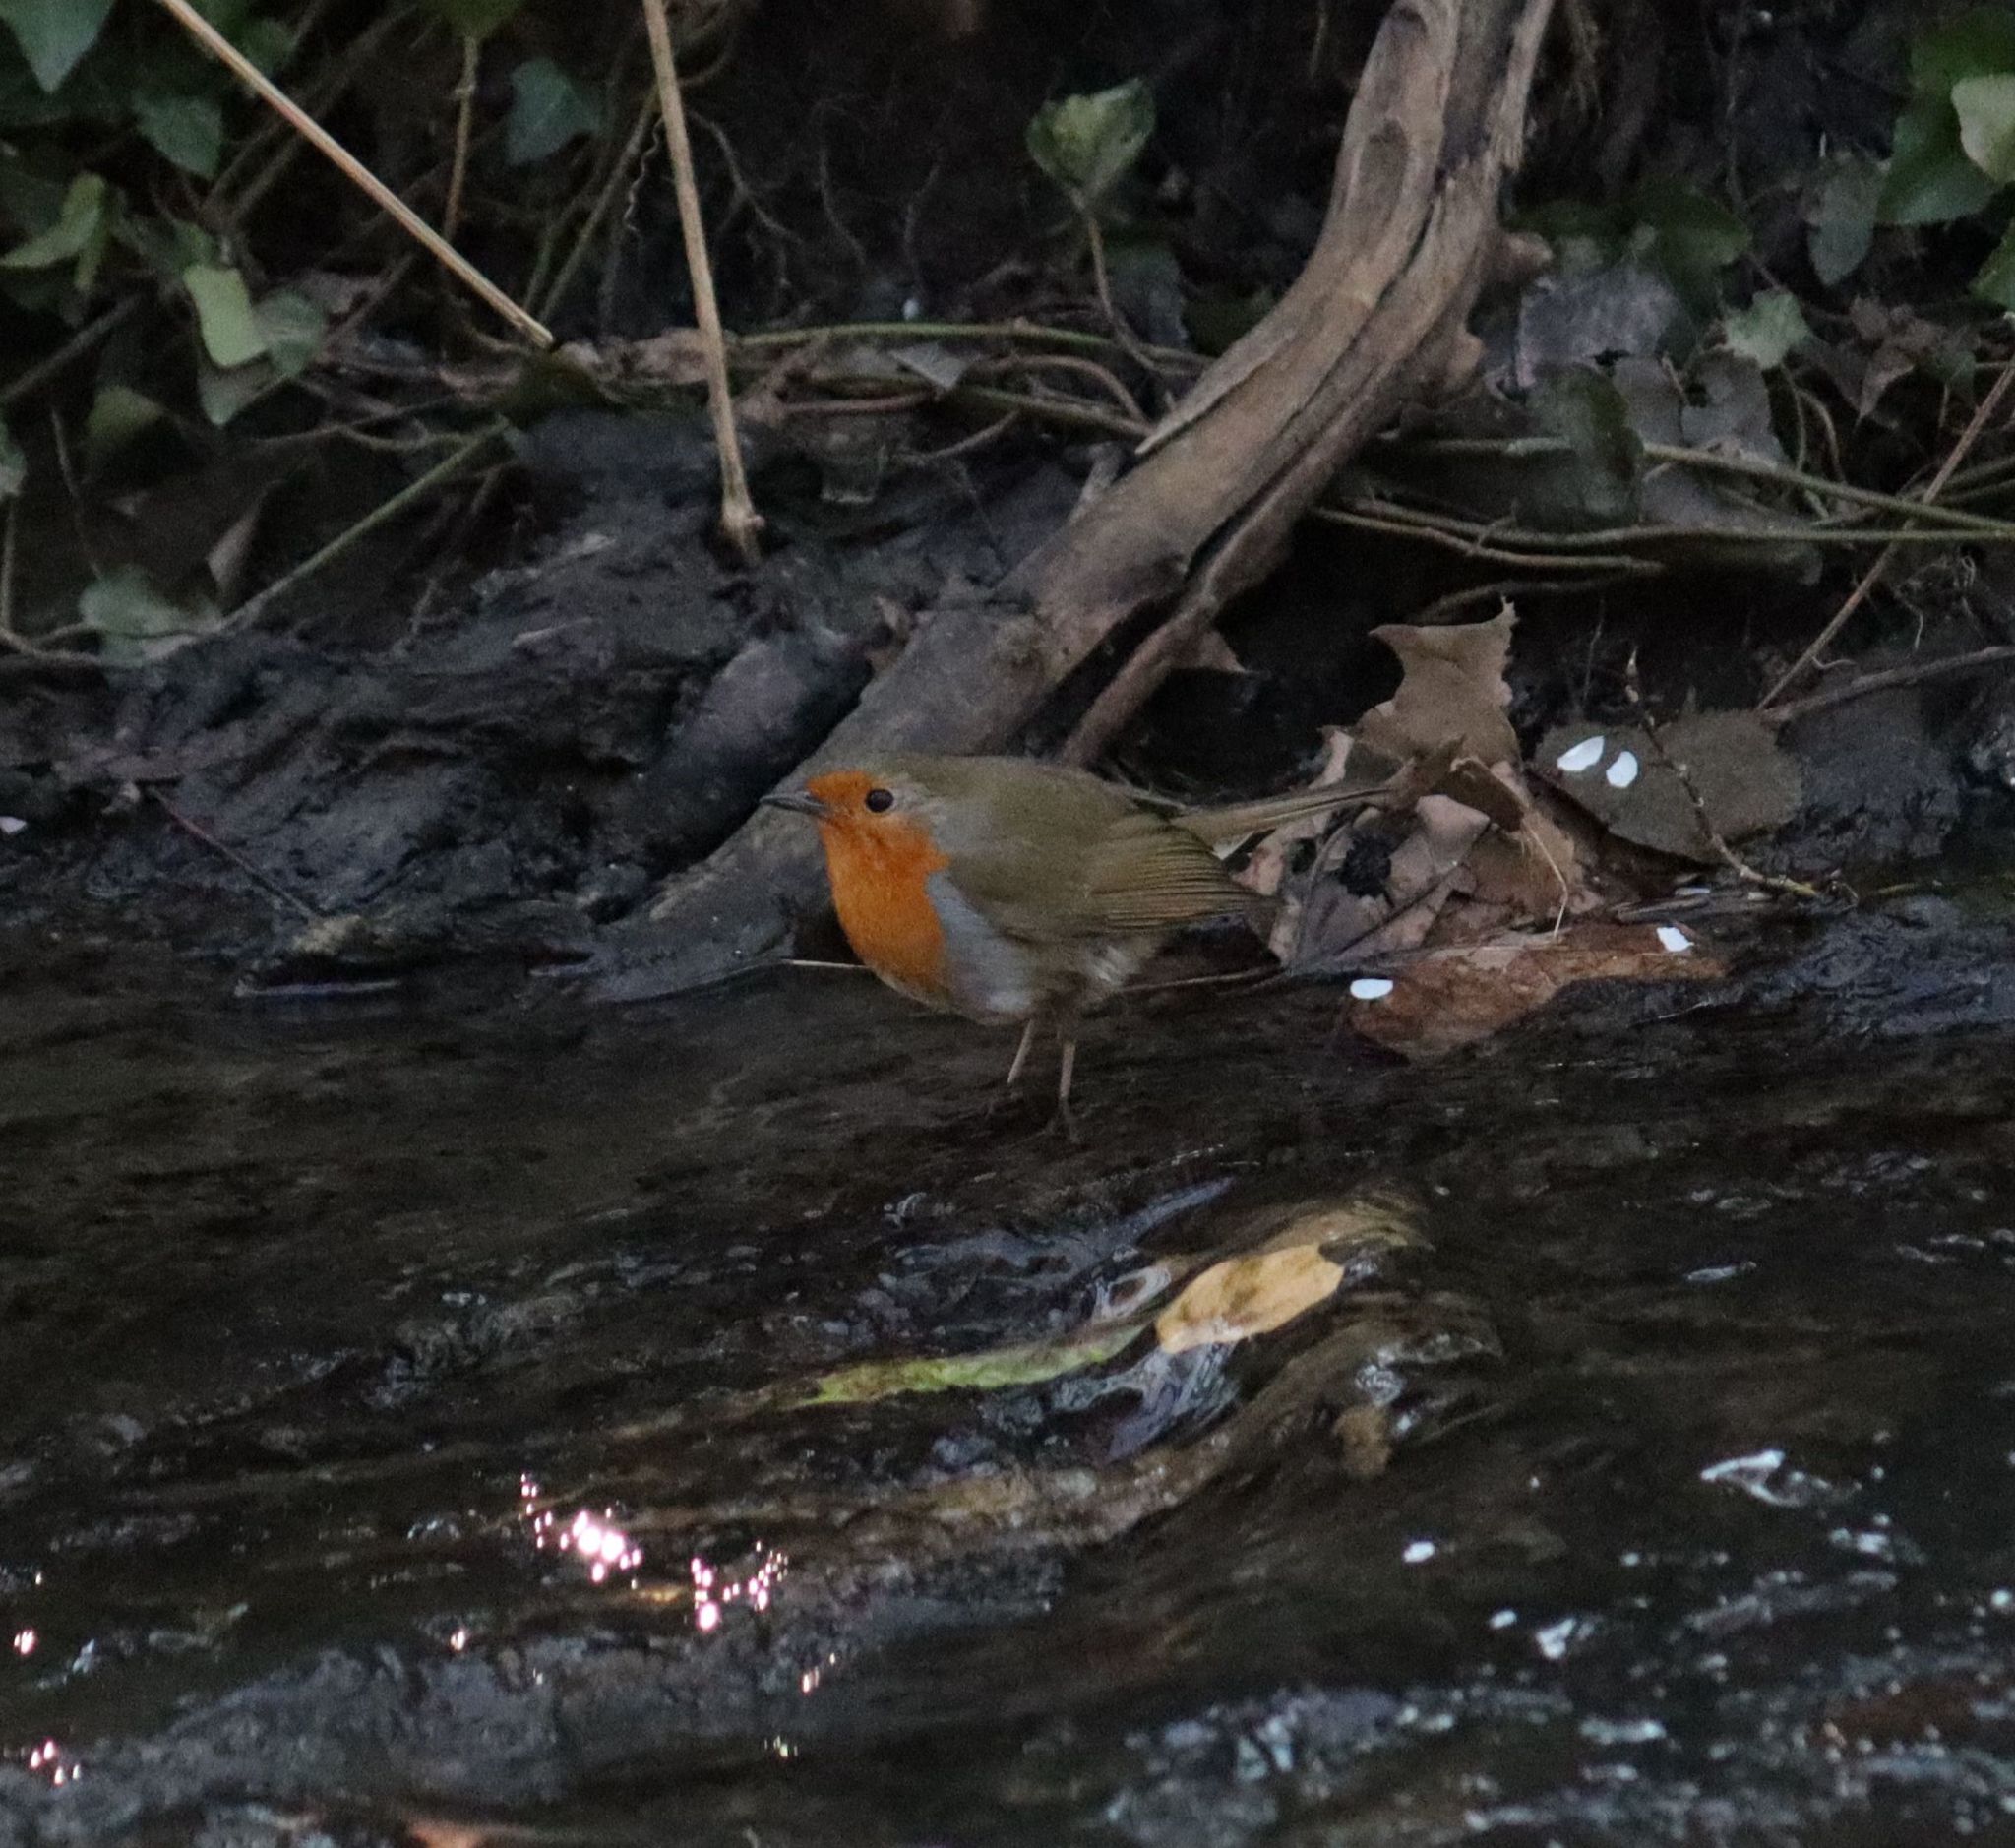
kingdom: Animalia
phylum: Chordata
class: Aves
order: Passeriformes
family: Muscicapidae
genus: Erithacus
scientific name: Erithacus rubecula
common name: European robin
